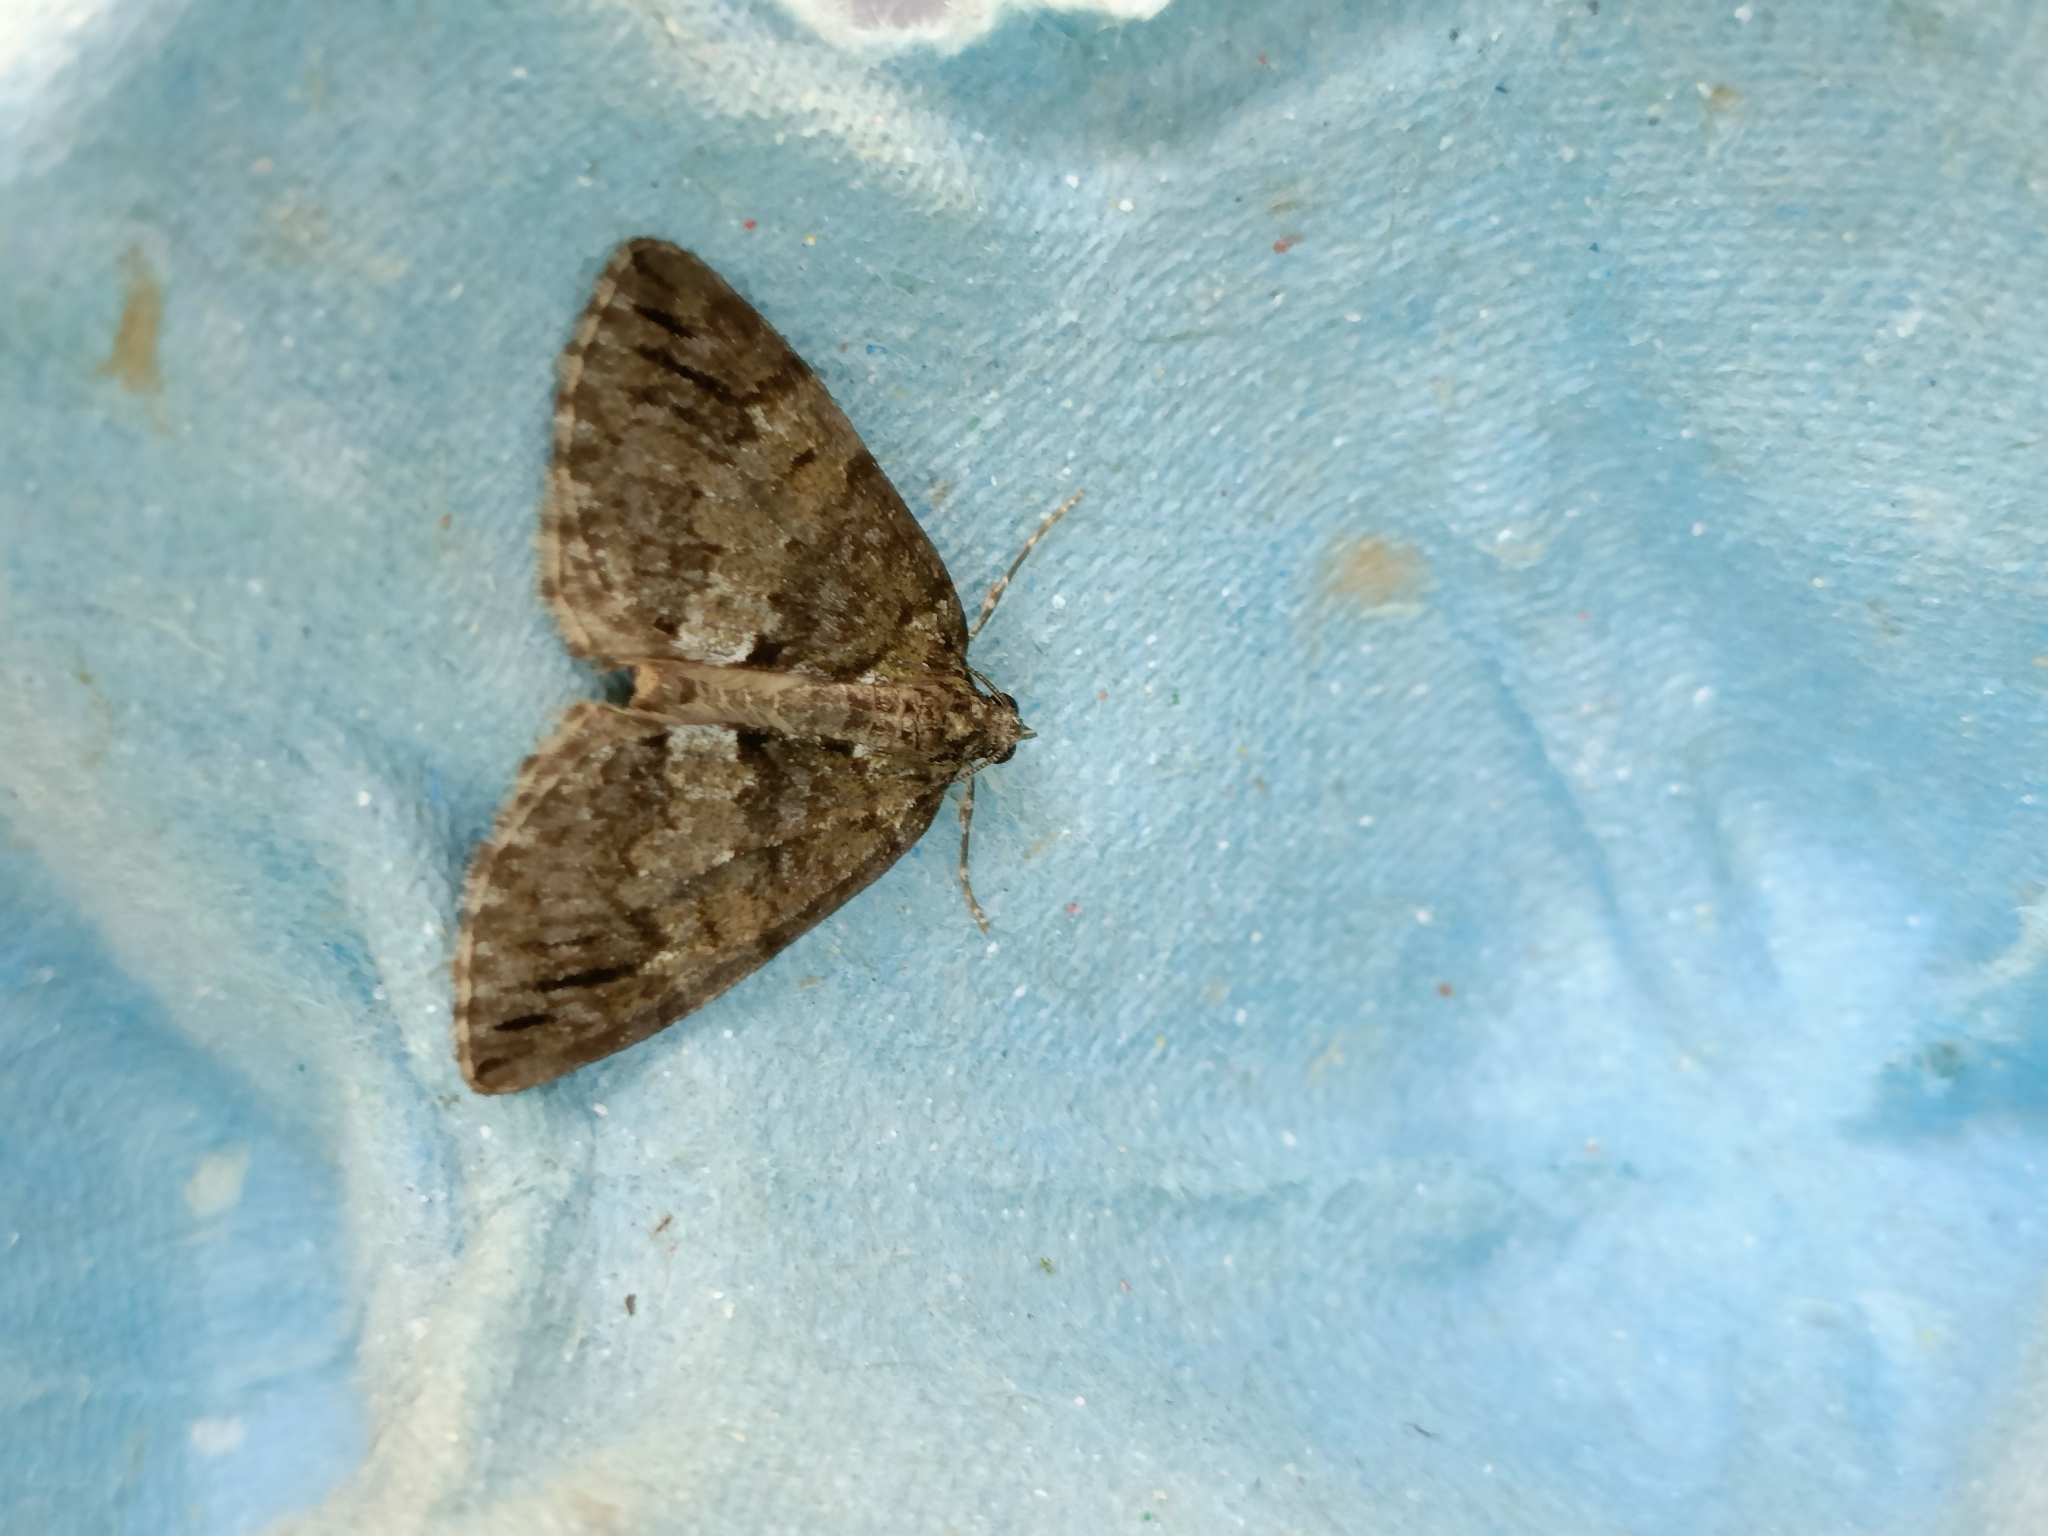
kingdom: Animalia
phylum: Arthropoda
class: Insecta
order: Lepidoptera
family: Geometridae
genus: Hydriomena
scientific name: Hydriomena impluviata
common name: May highflyer
